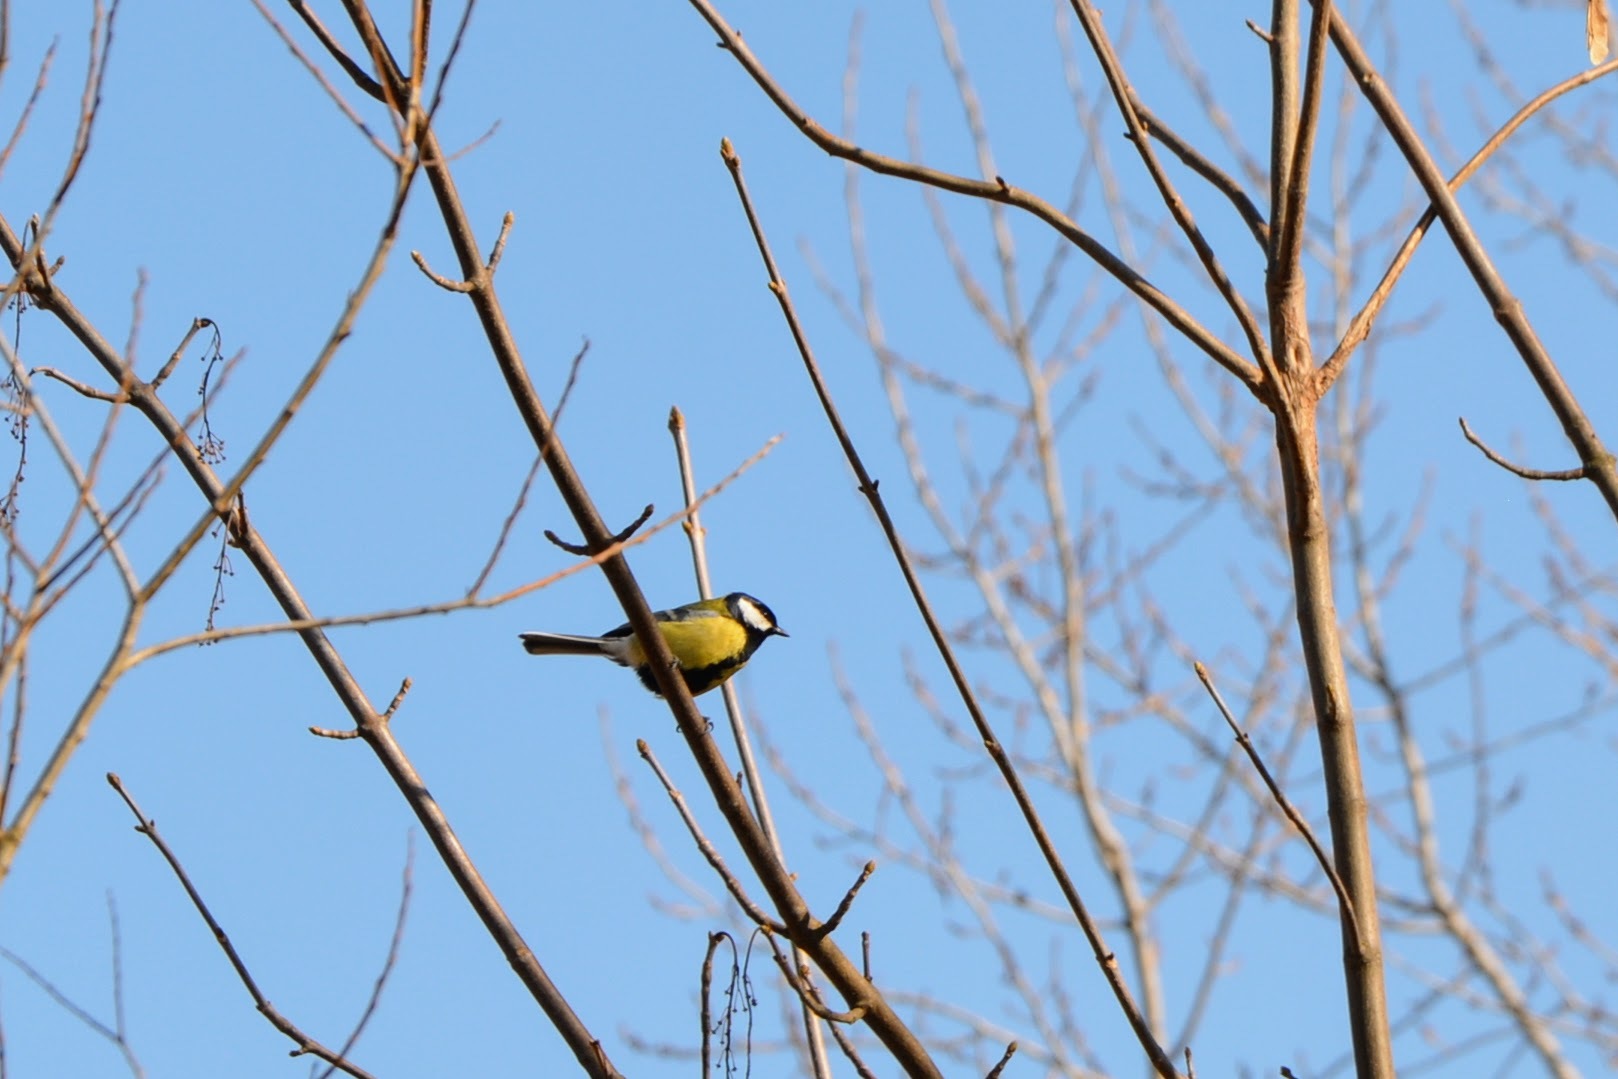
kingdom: Animalia
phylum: Chordata
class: Aves
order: Passeriformes
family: Paridae
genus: Parus
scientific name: Parus major
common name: Great tit
